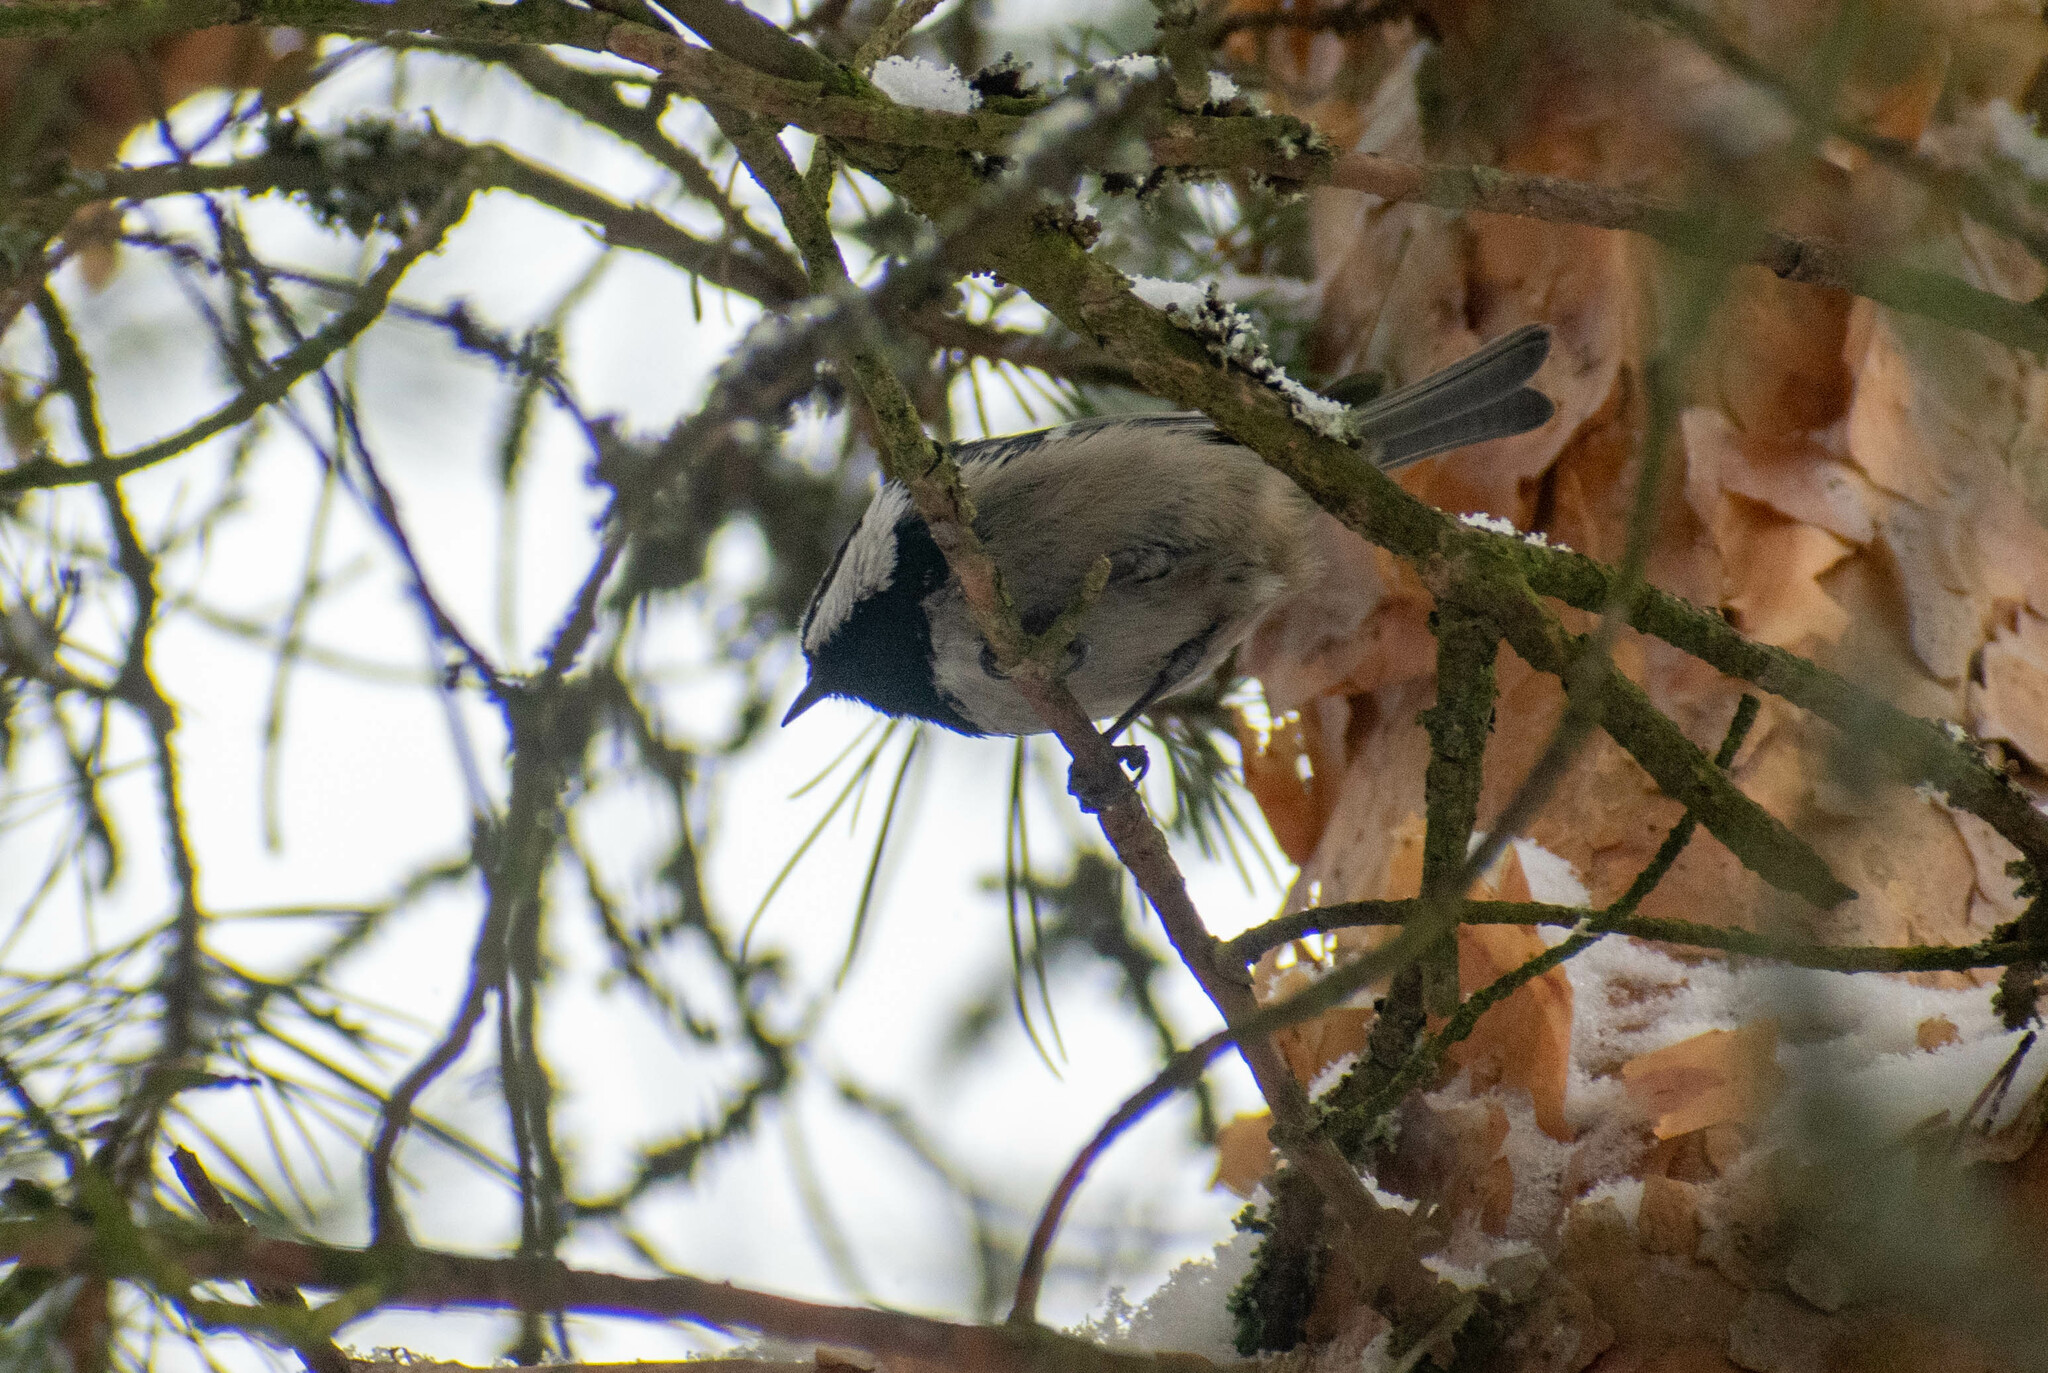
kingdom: Animalia
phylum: Chordata
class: Aves
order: Passeriformes
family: Paridae
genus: Periparus
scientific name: Periparus ater
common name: Coal tit
